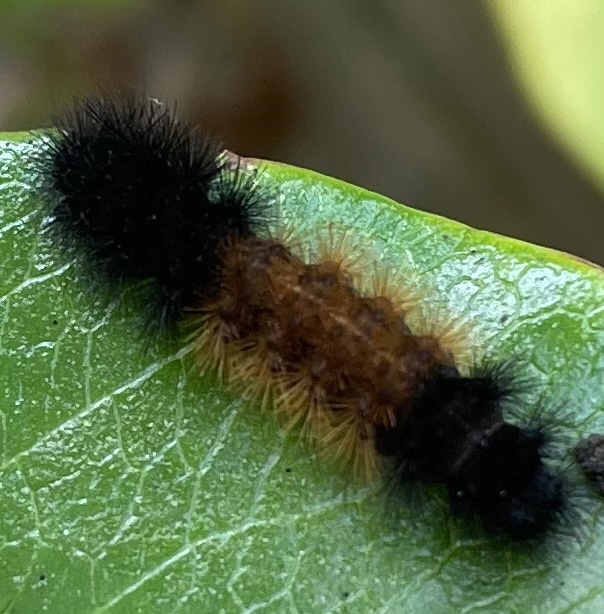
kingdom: Animalia
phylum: Arthropoda
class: Insecta
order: Lepidoptera
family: Erebidae
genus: Pyrrharctia
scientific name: Pyrrharctia isabella
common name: Isabella tiger moth
